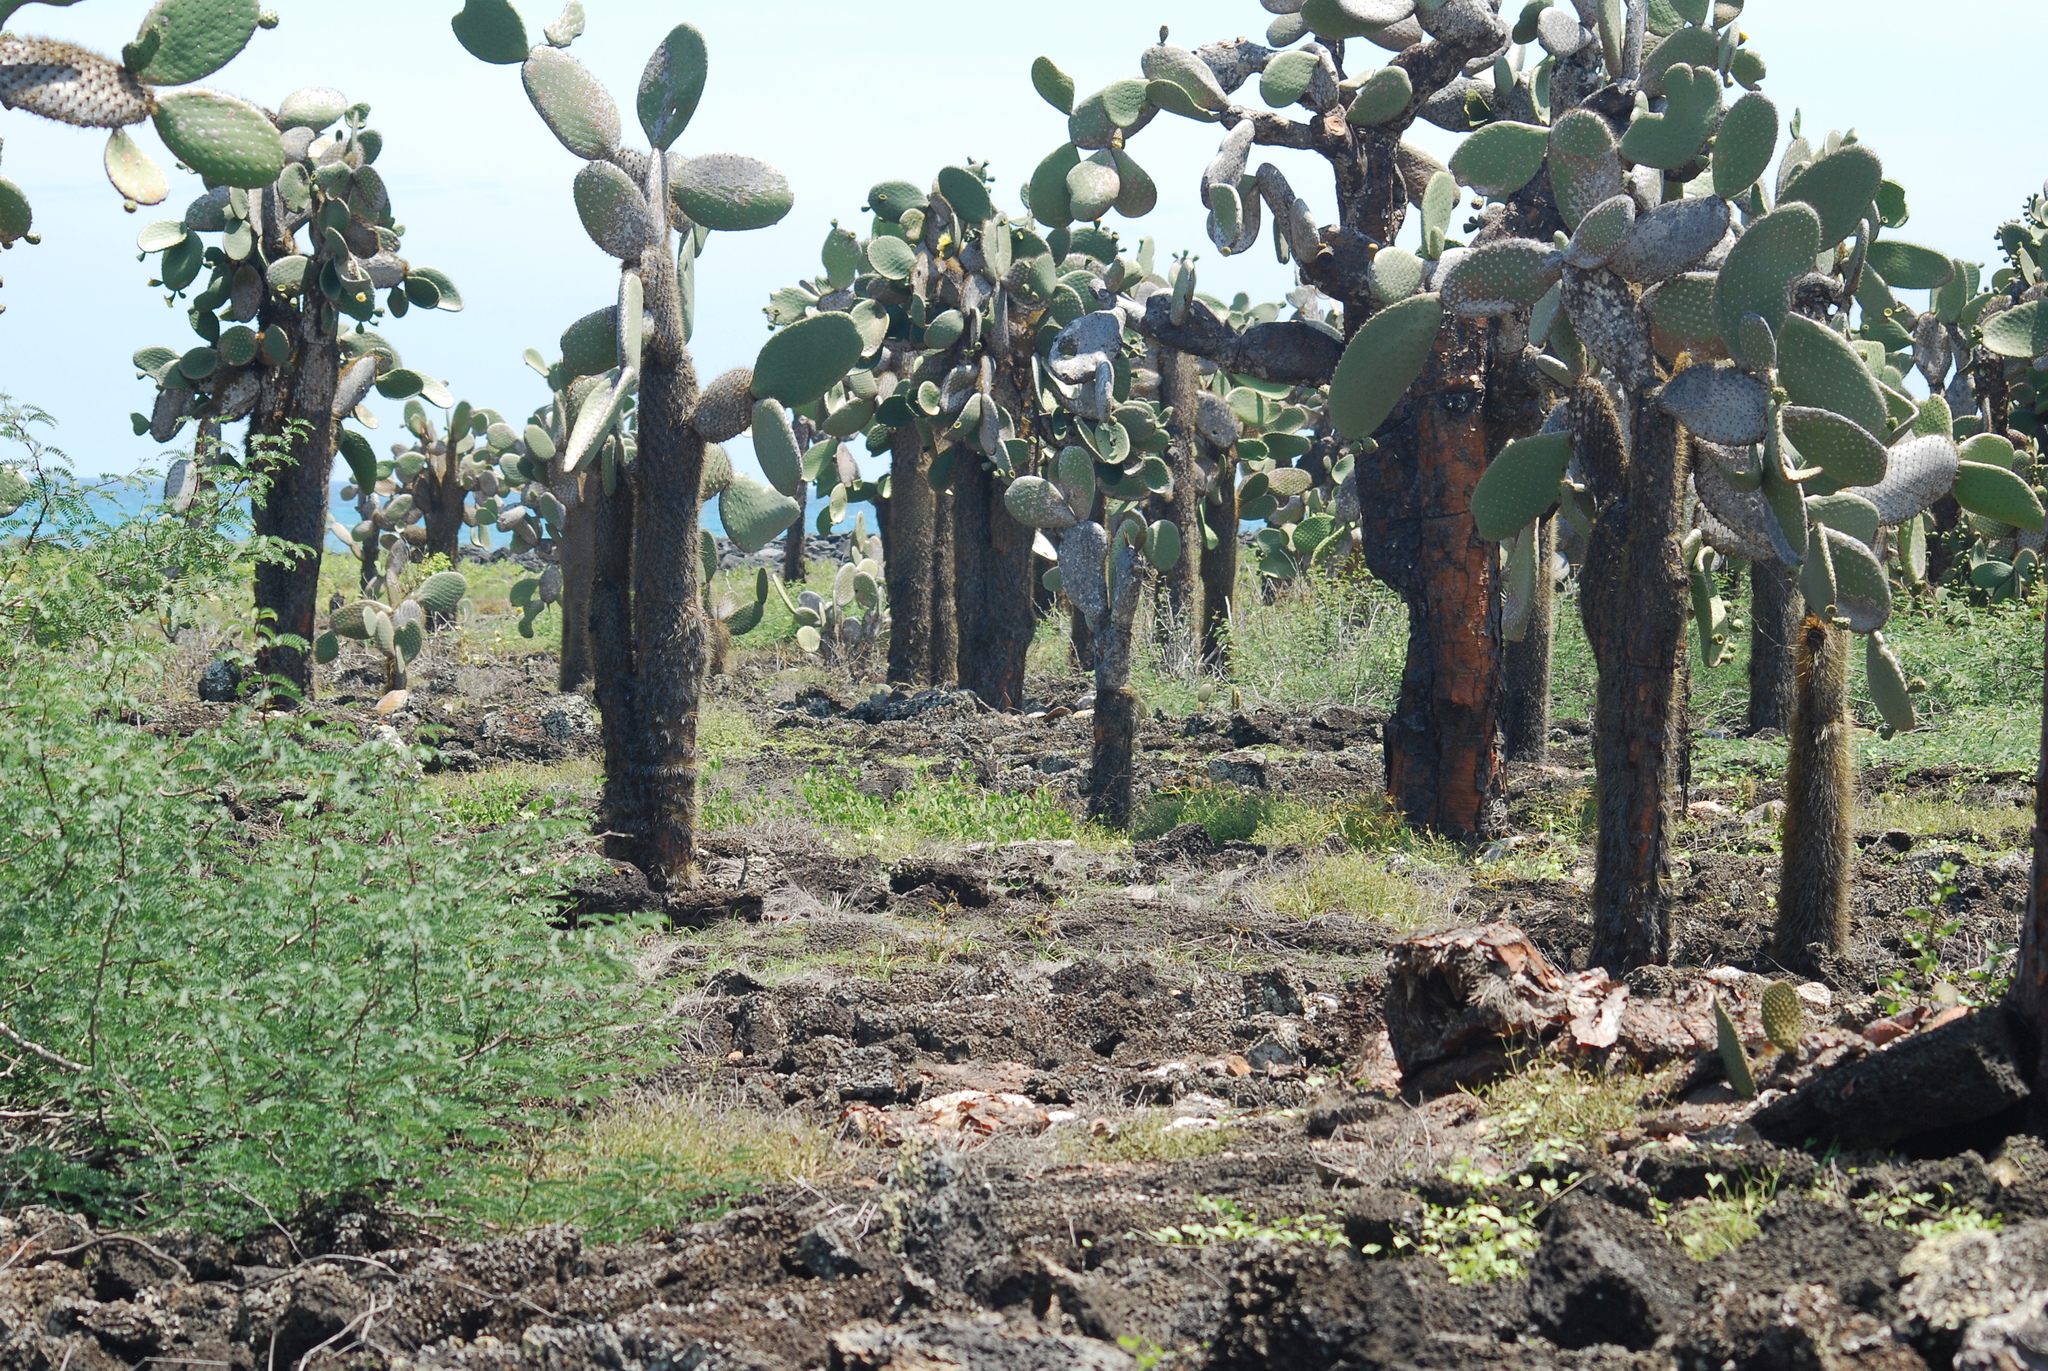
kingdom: Plantae
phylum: Tracheophyta
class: Magnoliopsida
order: Caryophyllales
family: Cactaceae
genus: Opuntia
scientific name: Opuntia galapageia
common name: Galápagos prickly pear
